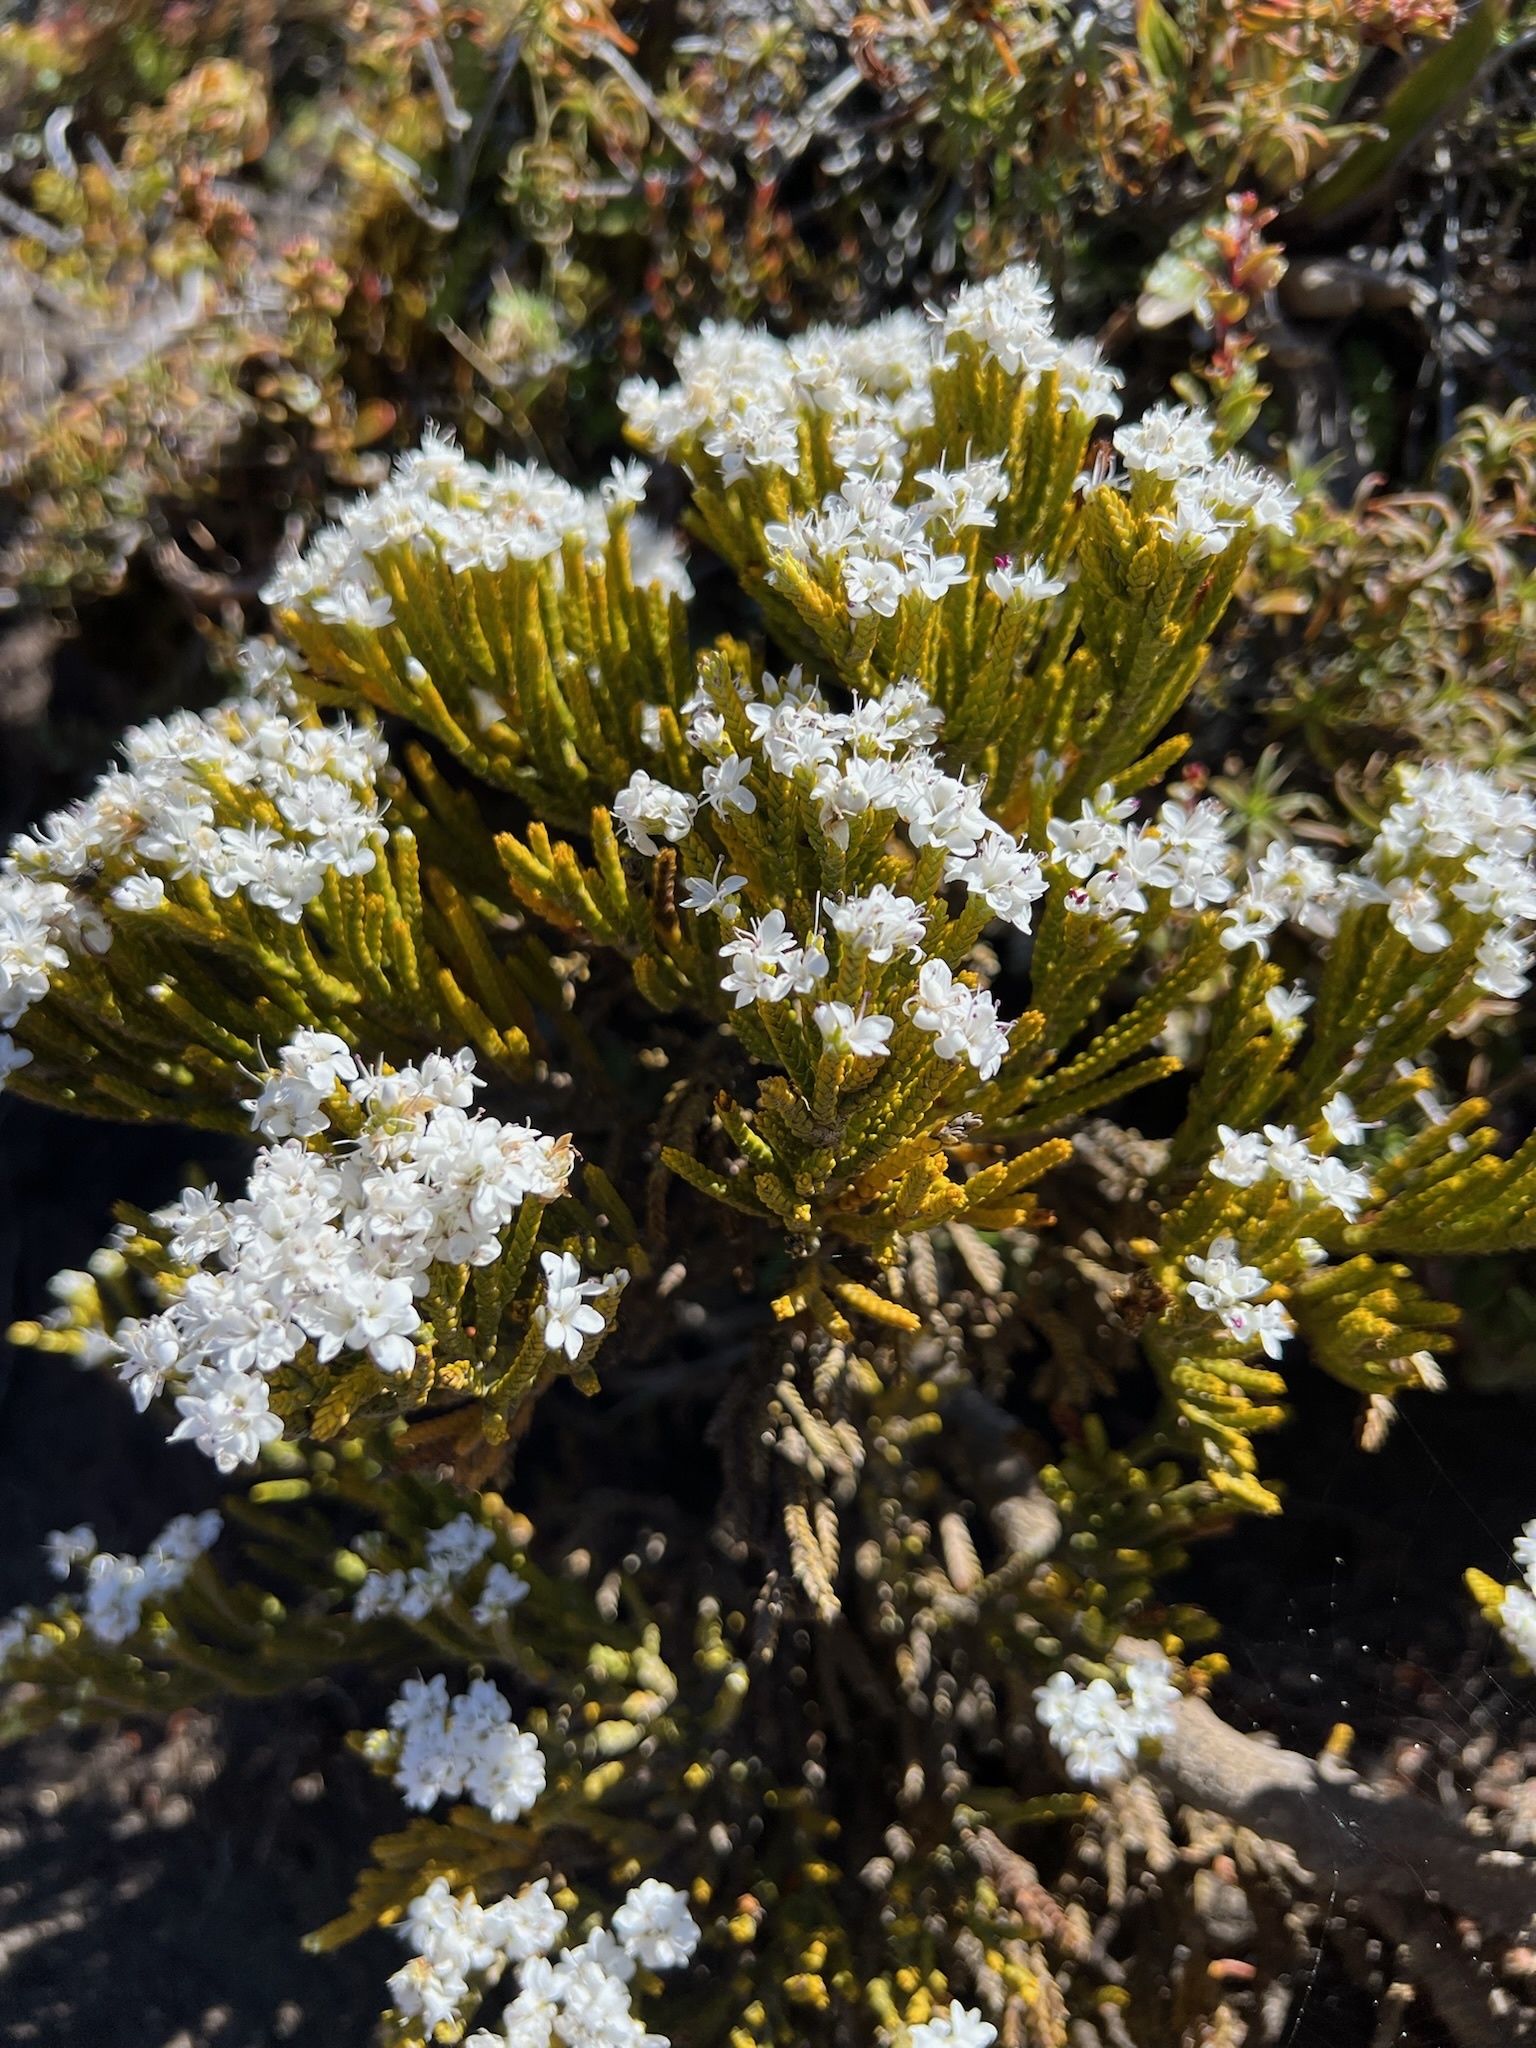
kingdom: Plantae
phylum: Tracheophyta
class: Magnoliopsida
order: Lamiales
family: Plantaginaceae
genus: Veronica
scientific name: Veronica tetragona
